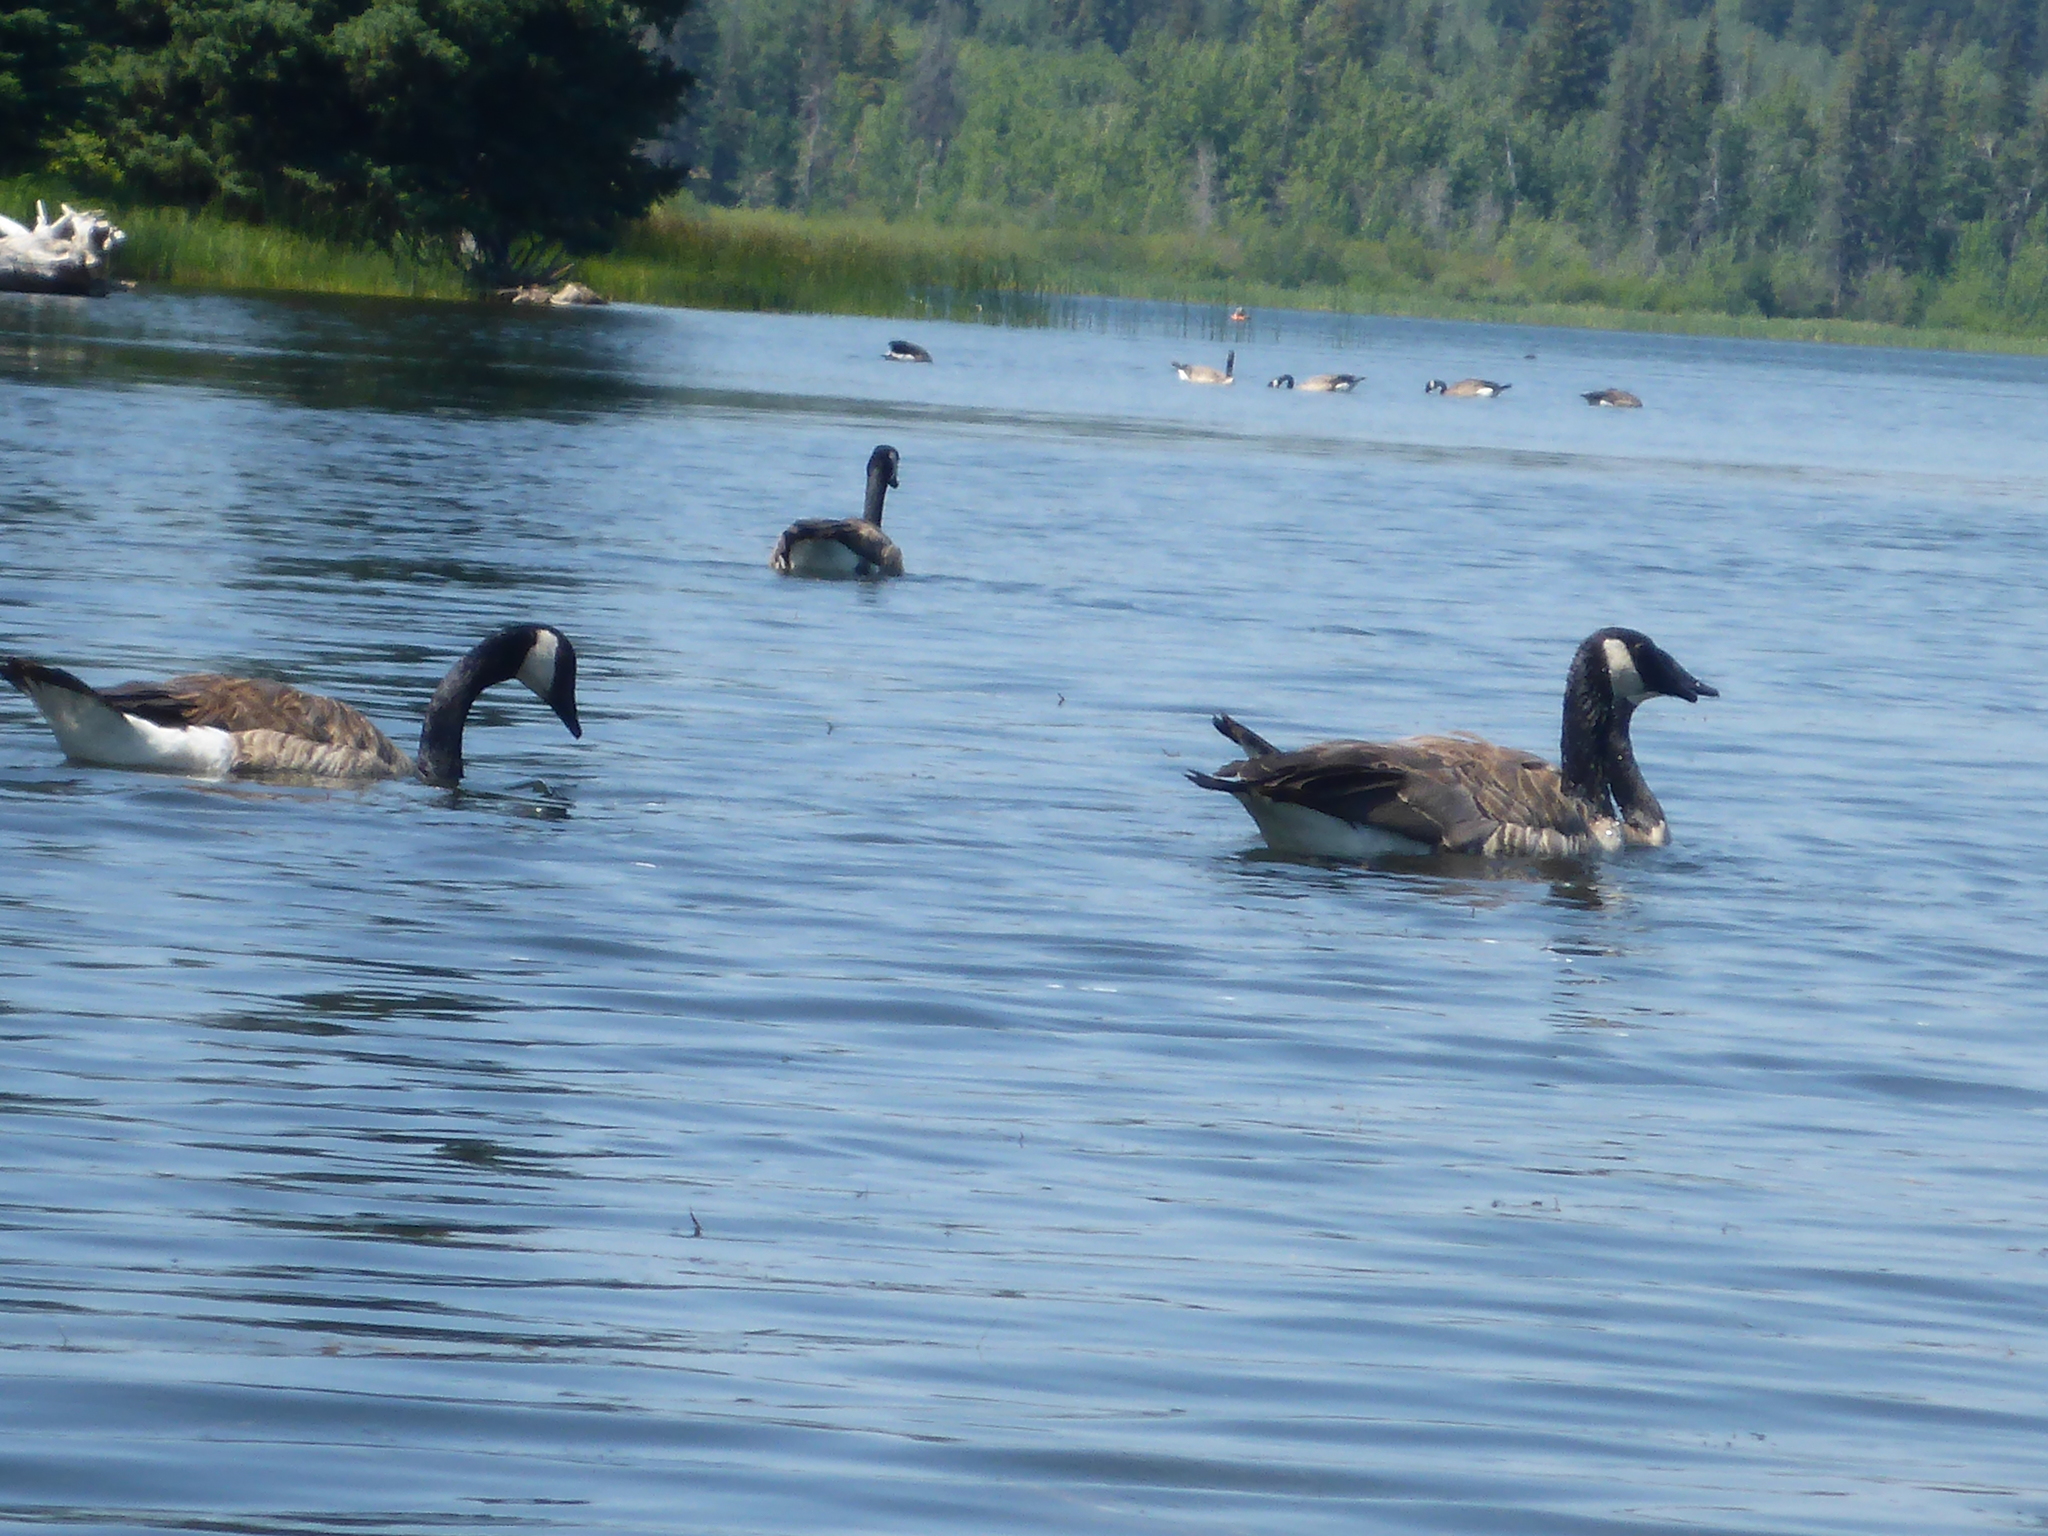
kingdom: Animalia
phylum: Chordata
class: Aves
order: Anseriformes
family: Anatidae
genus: Branta
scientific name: Branta canadensis
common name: Canada goose
